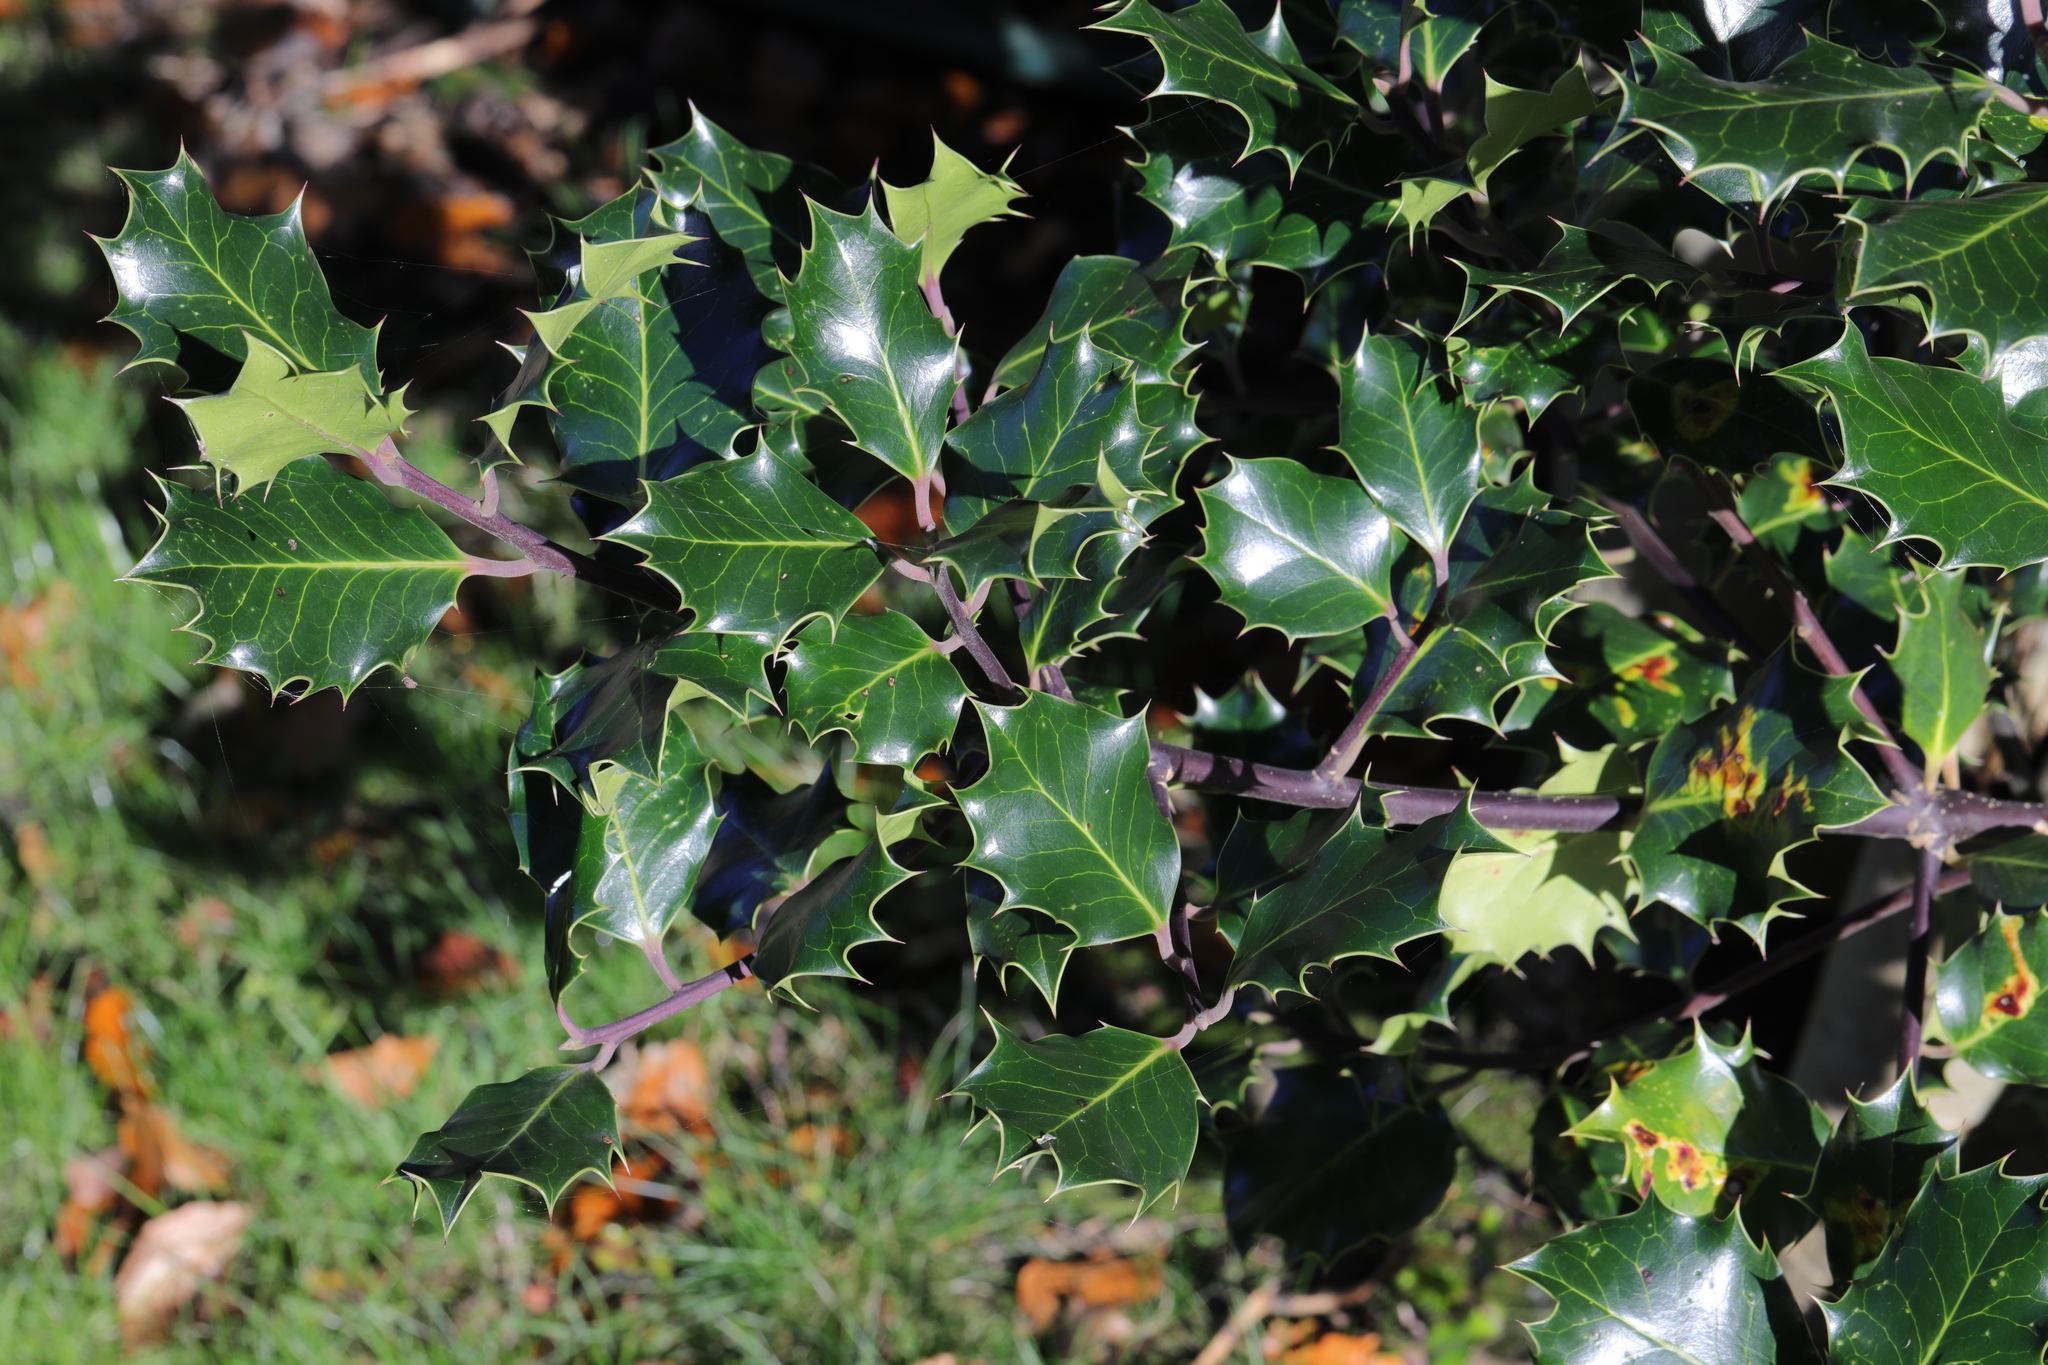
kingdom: Plantae
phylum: Tracheophyta
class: Magnoliopsida
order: Aquifoliales
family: Aquifoliaceae
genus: Ilex
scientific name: Ilex aquifolium
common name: English holly
